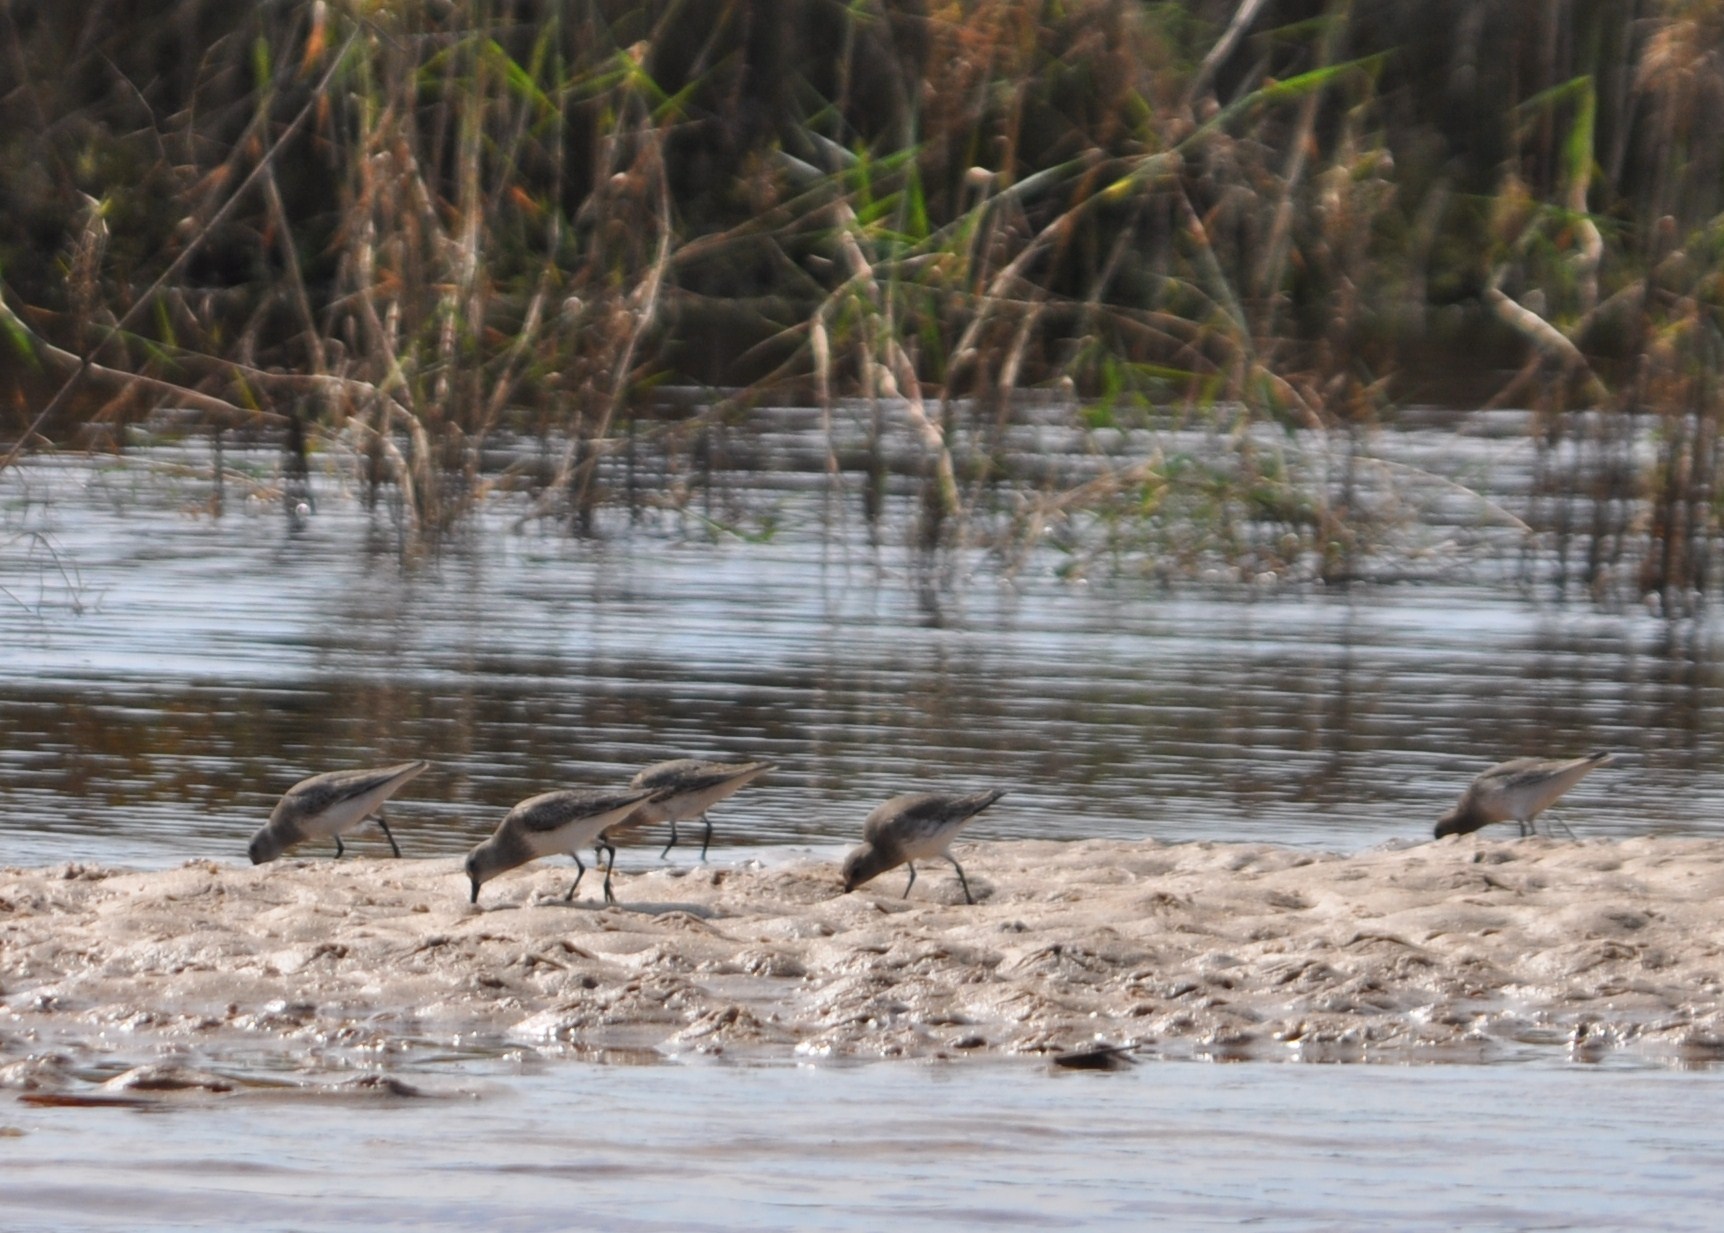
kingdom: Animalia
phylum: Chordata
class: Aves
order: Charadriiformes
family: Charadriidae
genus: Pluvialis
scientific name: Pluvialis squatarola
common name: Grey plover
